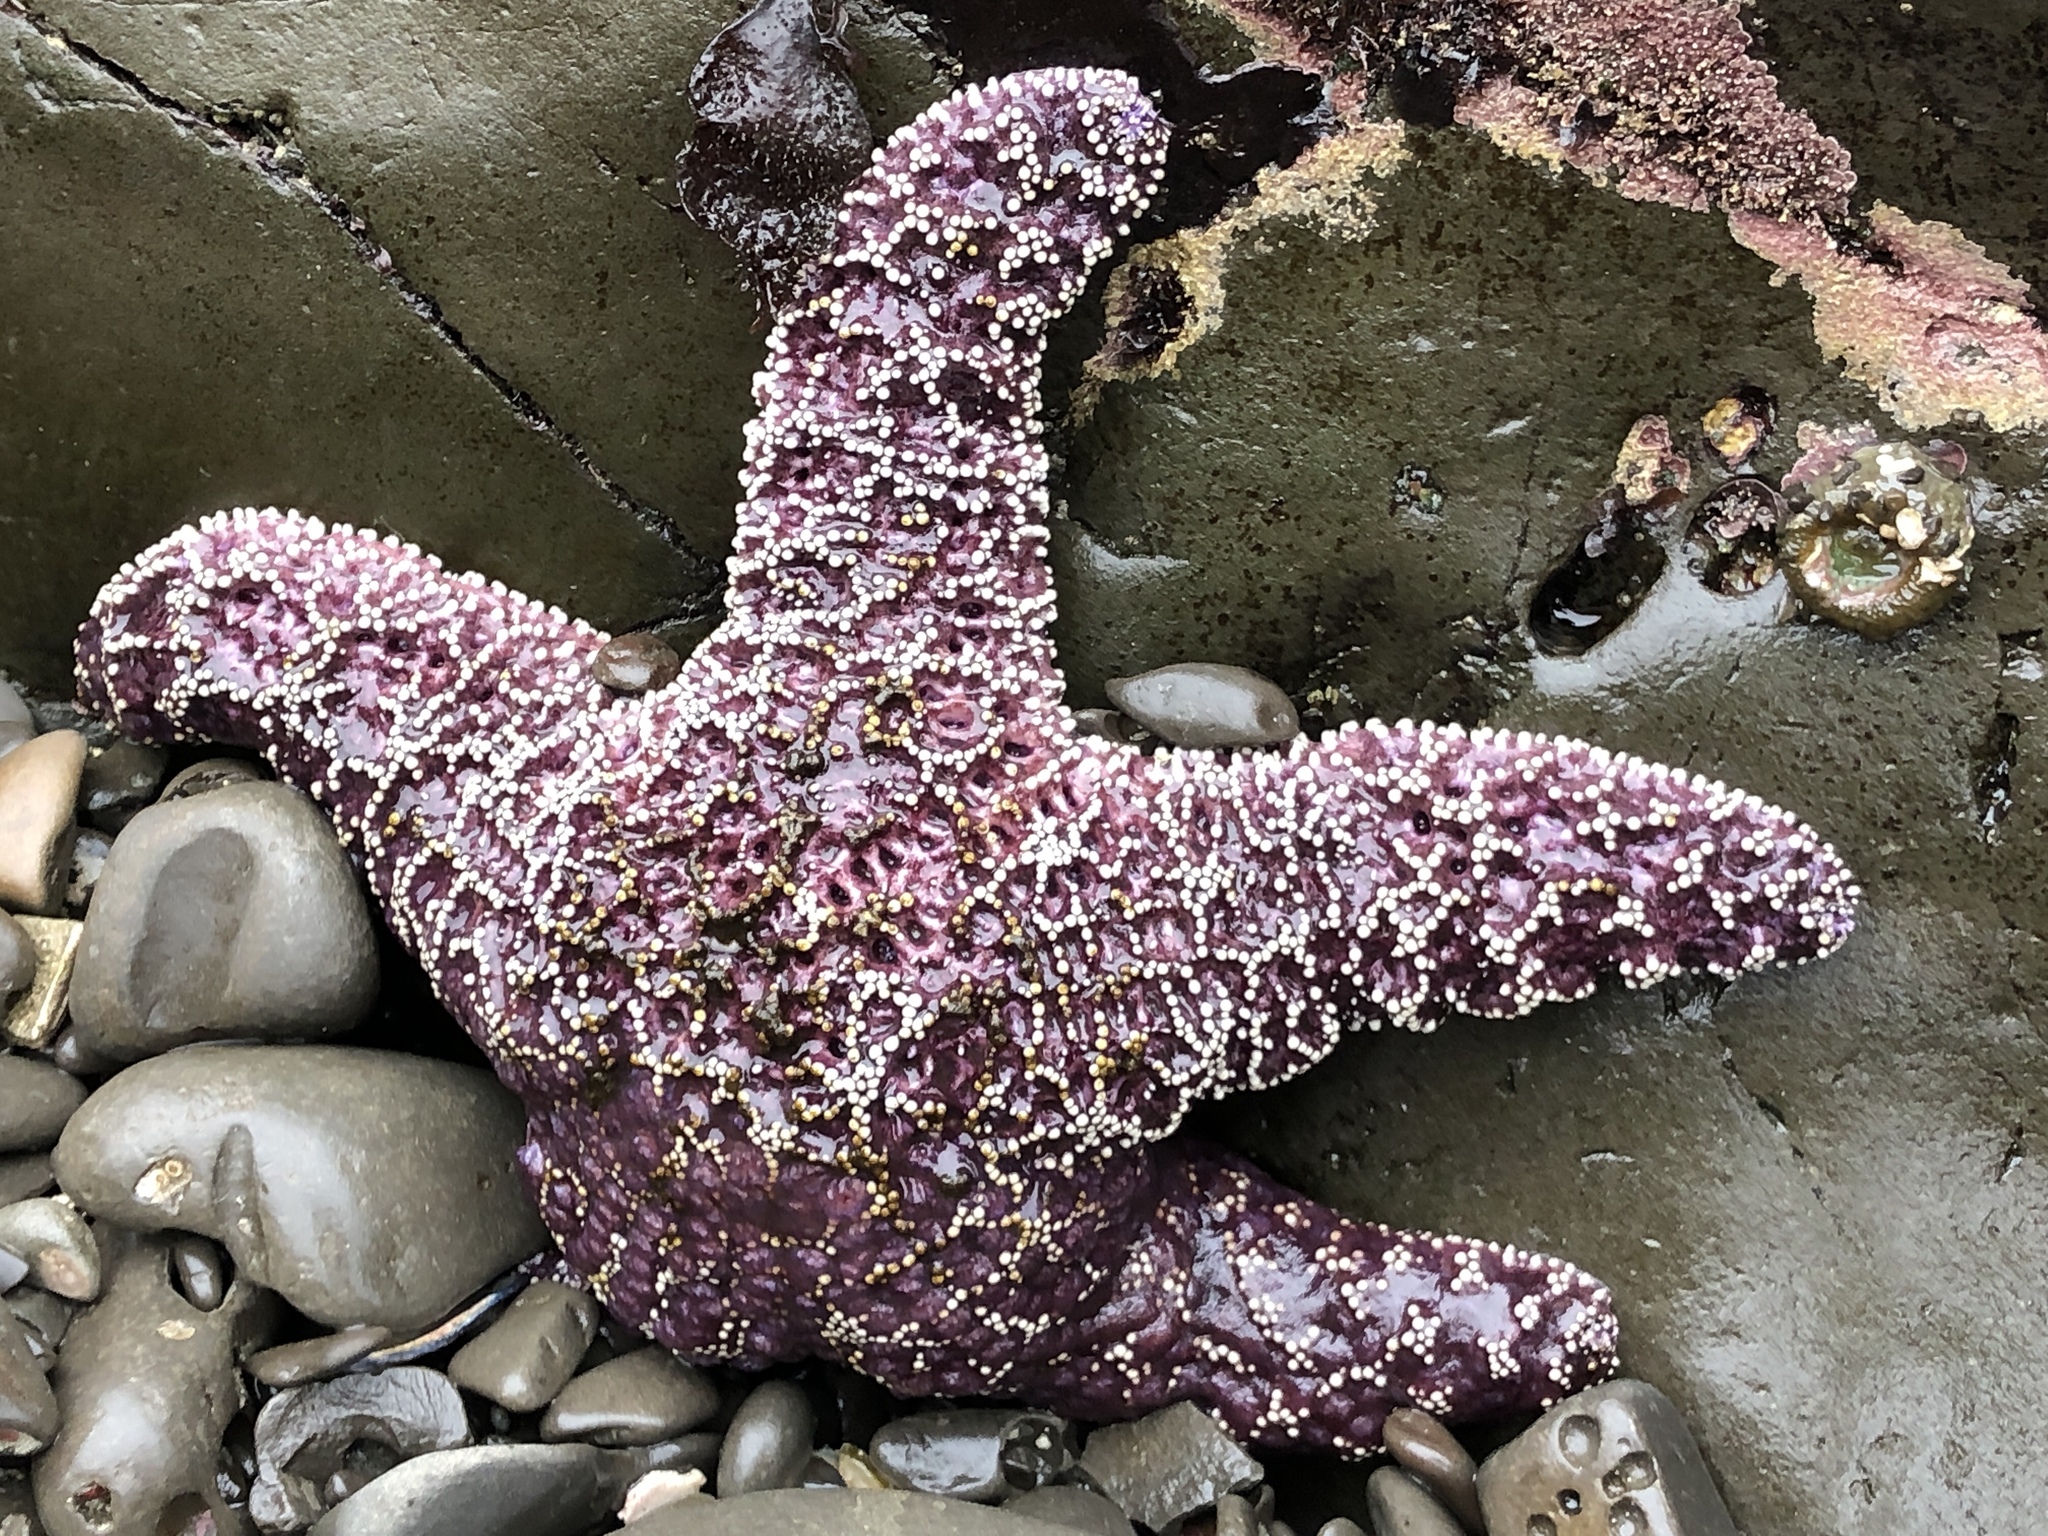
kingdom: Animalia
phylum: Echinodermata
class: Asteroidea
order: Forcipulatida
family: Asteriidae
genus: Pisaster
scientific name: Pisaster ochraceus
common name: Ochre stars
